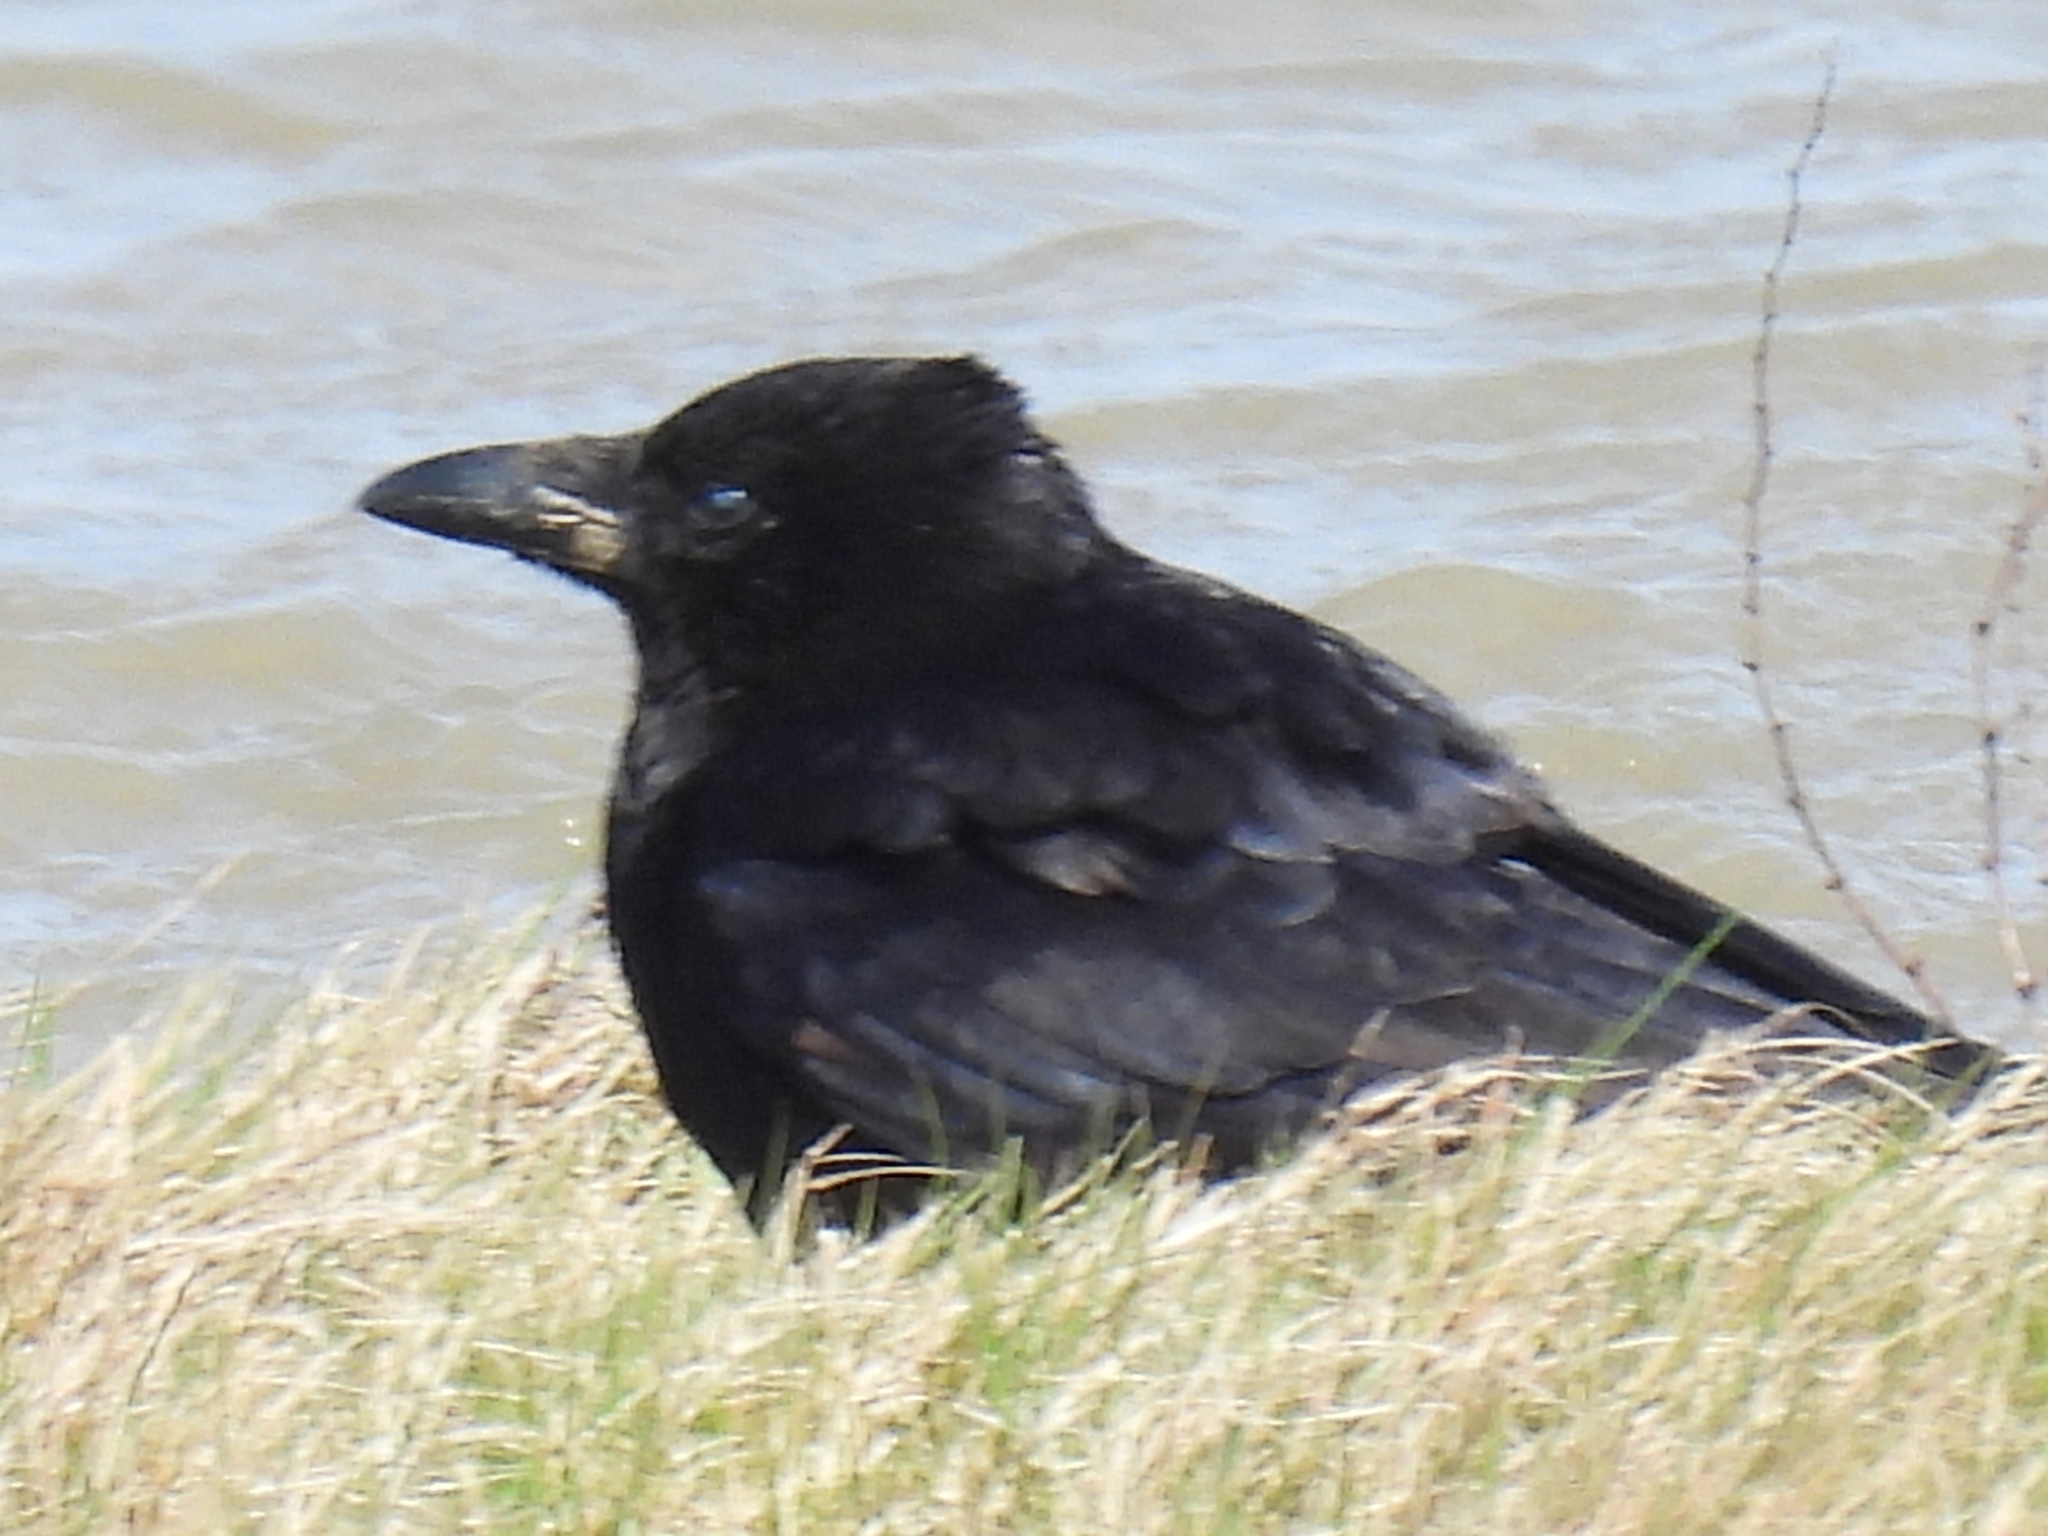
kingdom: Animalia
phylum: Chordata
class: Aves
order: Passeriformes
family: Corvidae
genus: Corvus
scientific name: Corvus corax
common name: Common raven
